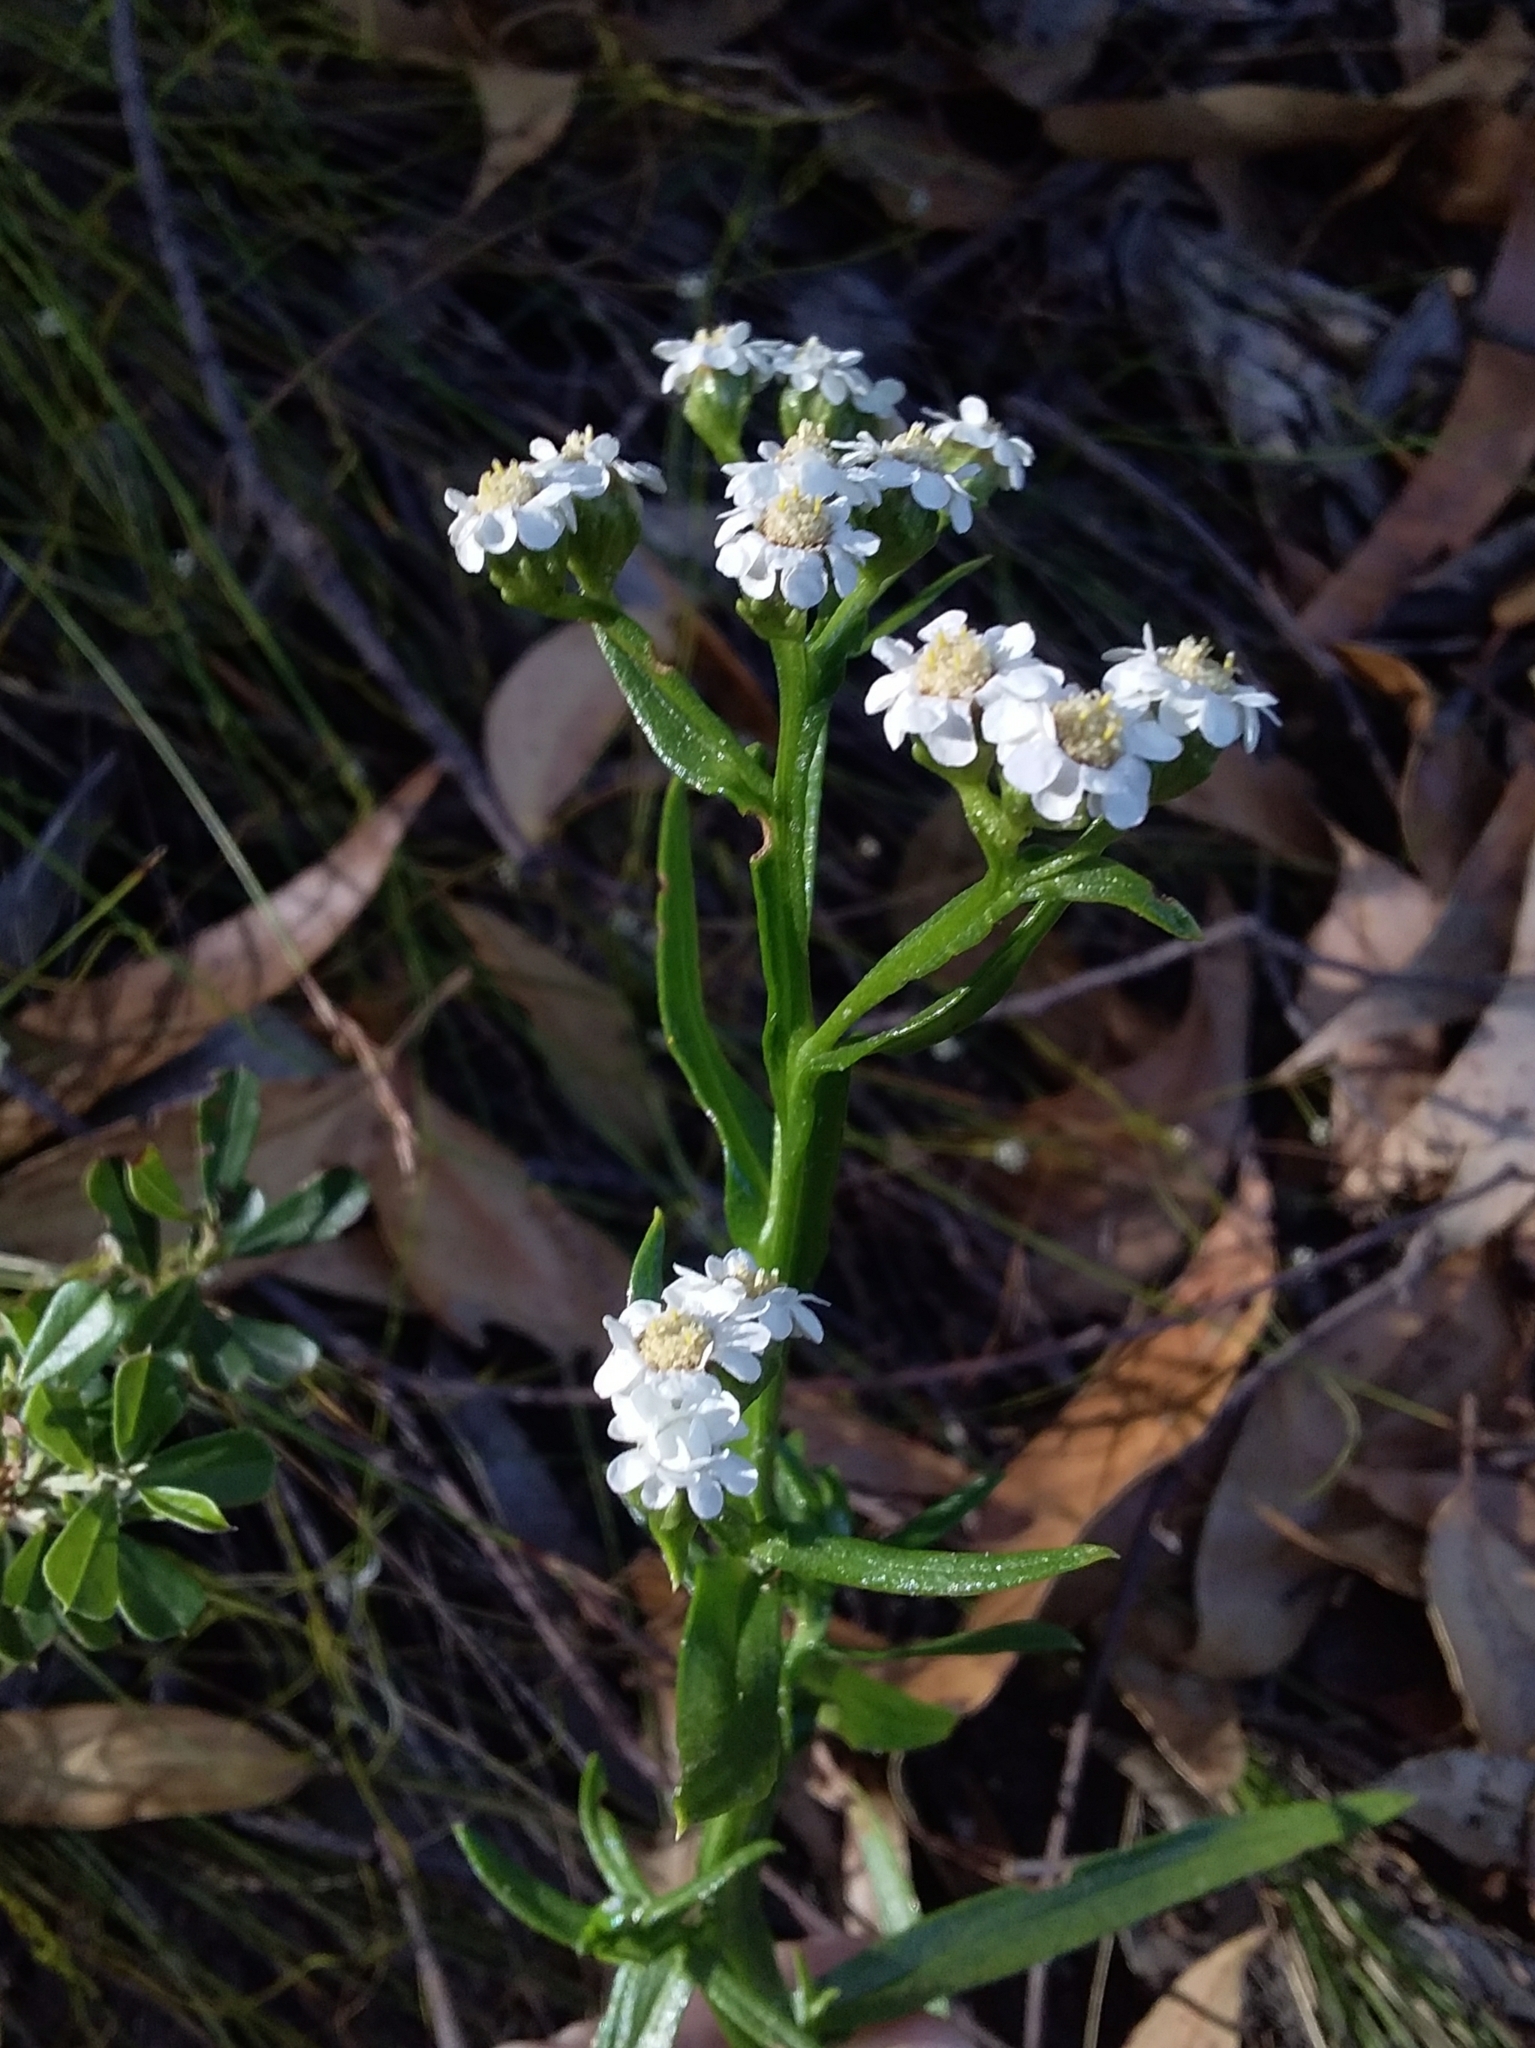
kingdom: Plantae
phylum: Tracheophyta
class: Magnoliopsida
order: Asterales
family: Asteraceae
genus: Ixodia
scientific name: Ixodia achillaeoides
